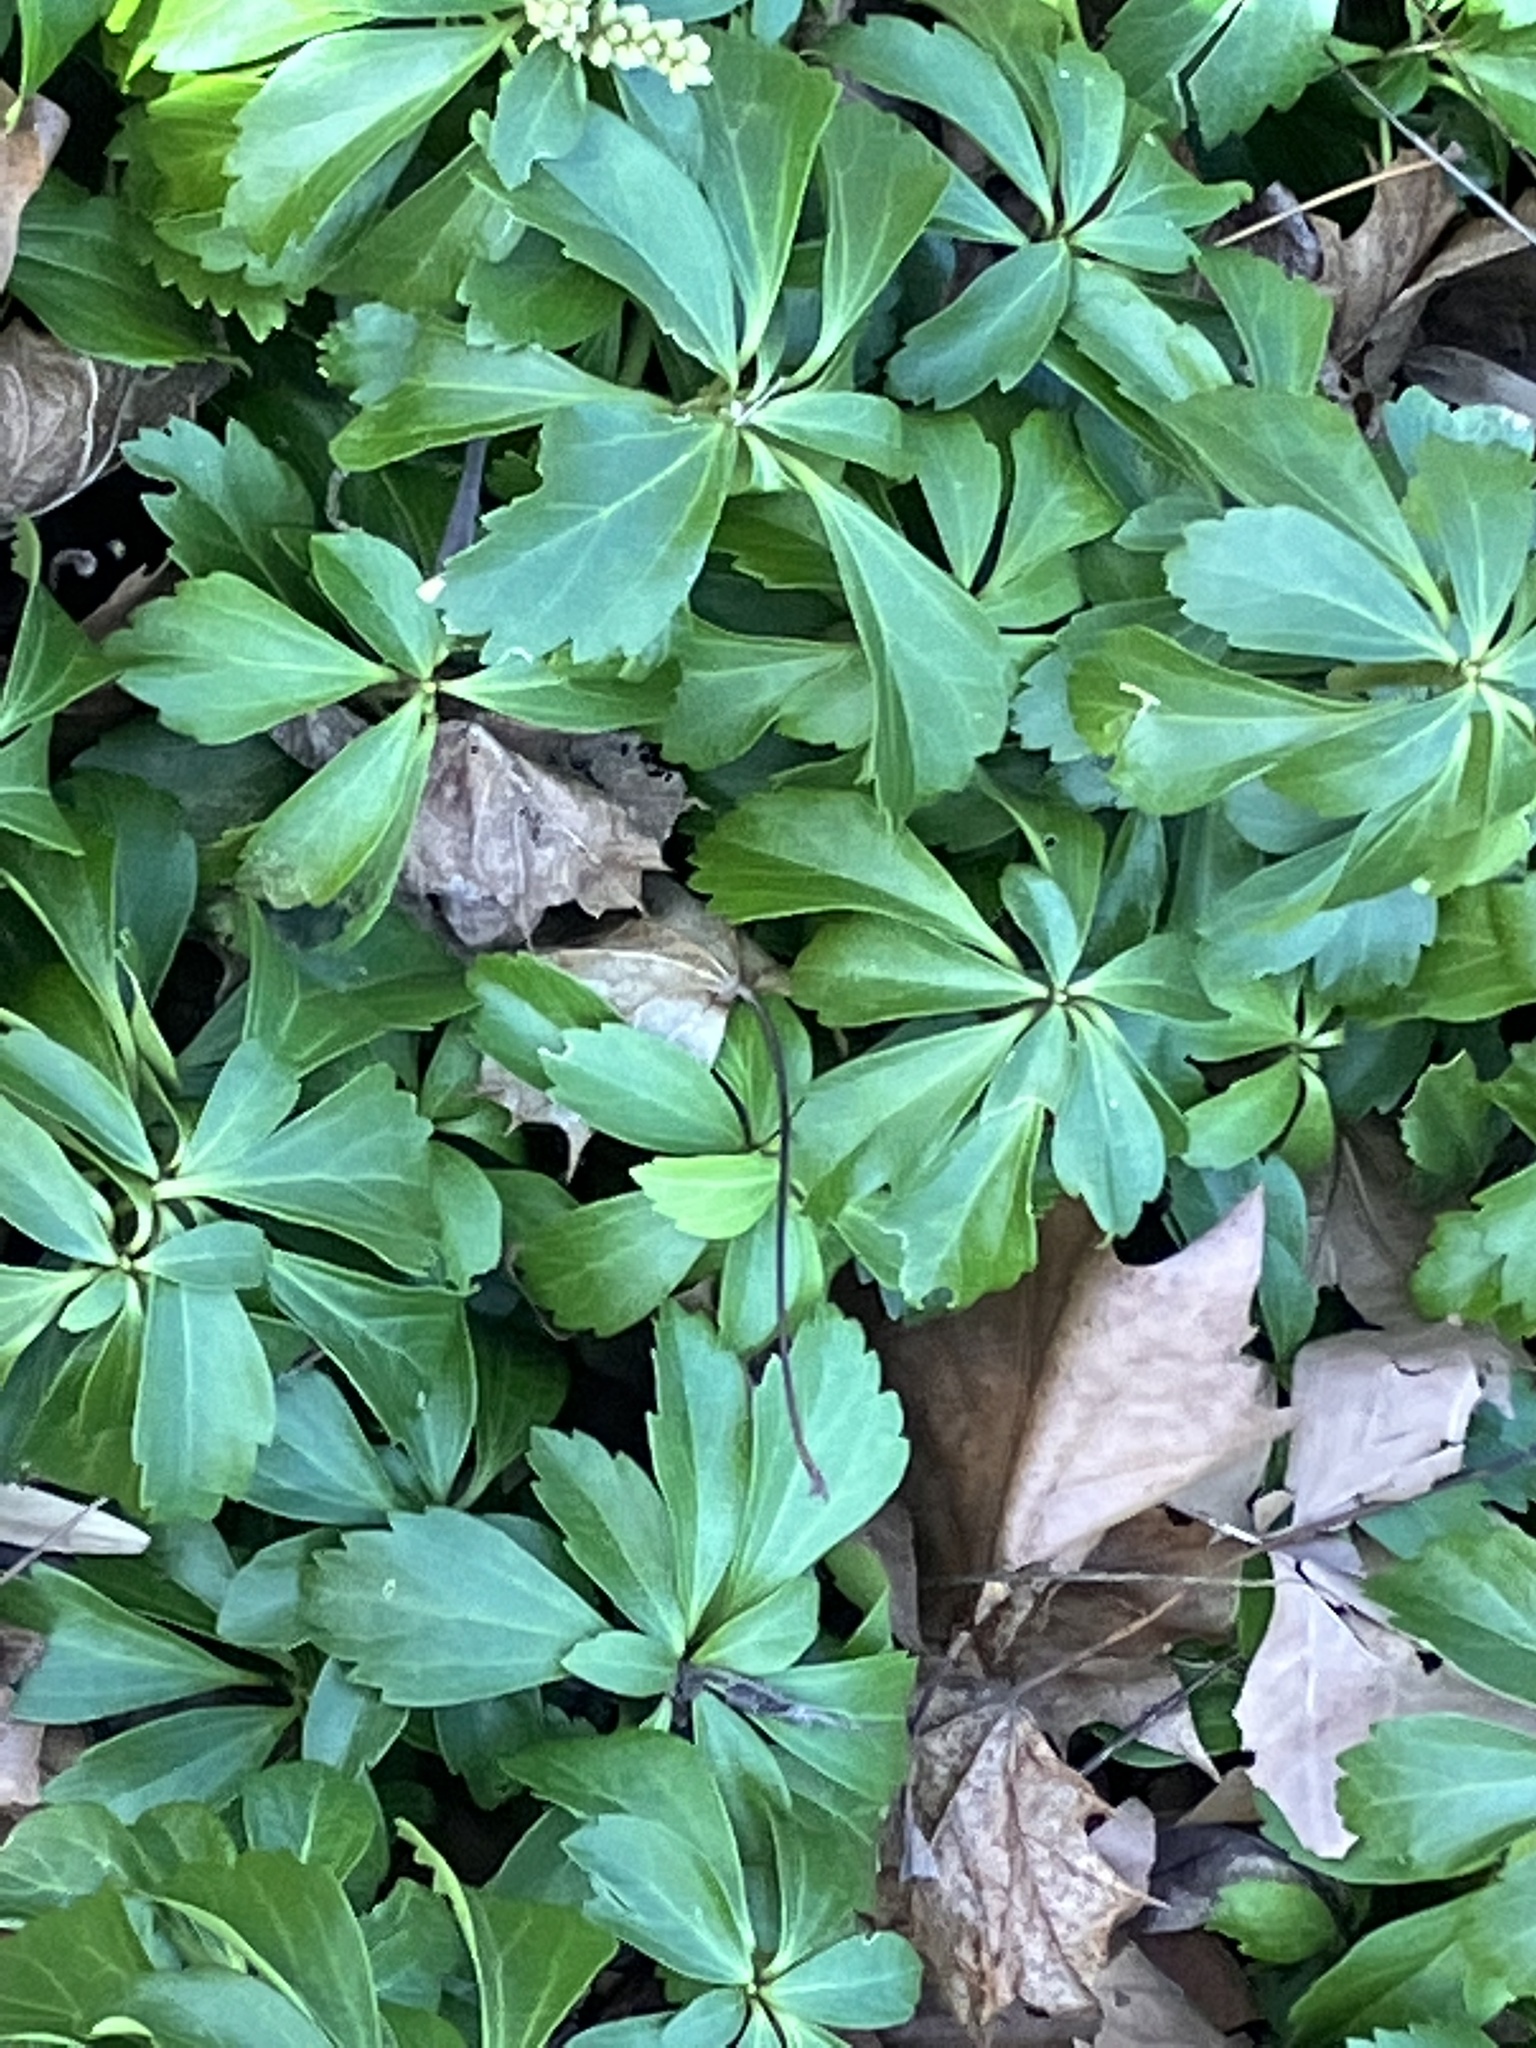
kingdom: Plantae
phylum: Tracheophyta
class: Magnoliopsida
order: Buxales
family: Buxaceae
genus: Pachysandra
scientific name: Pachysandra terminalis
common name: Japanese pachysandra
